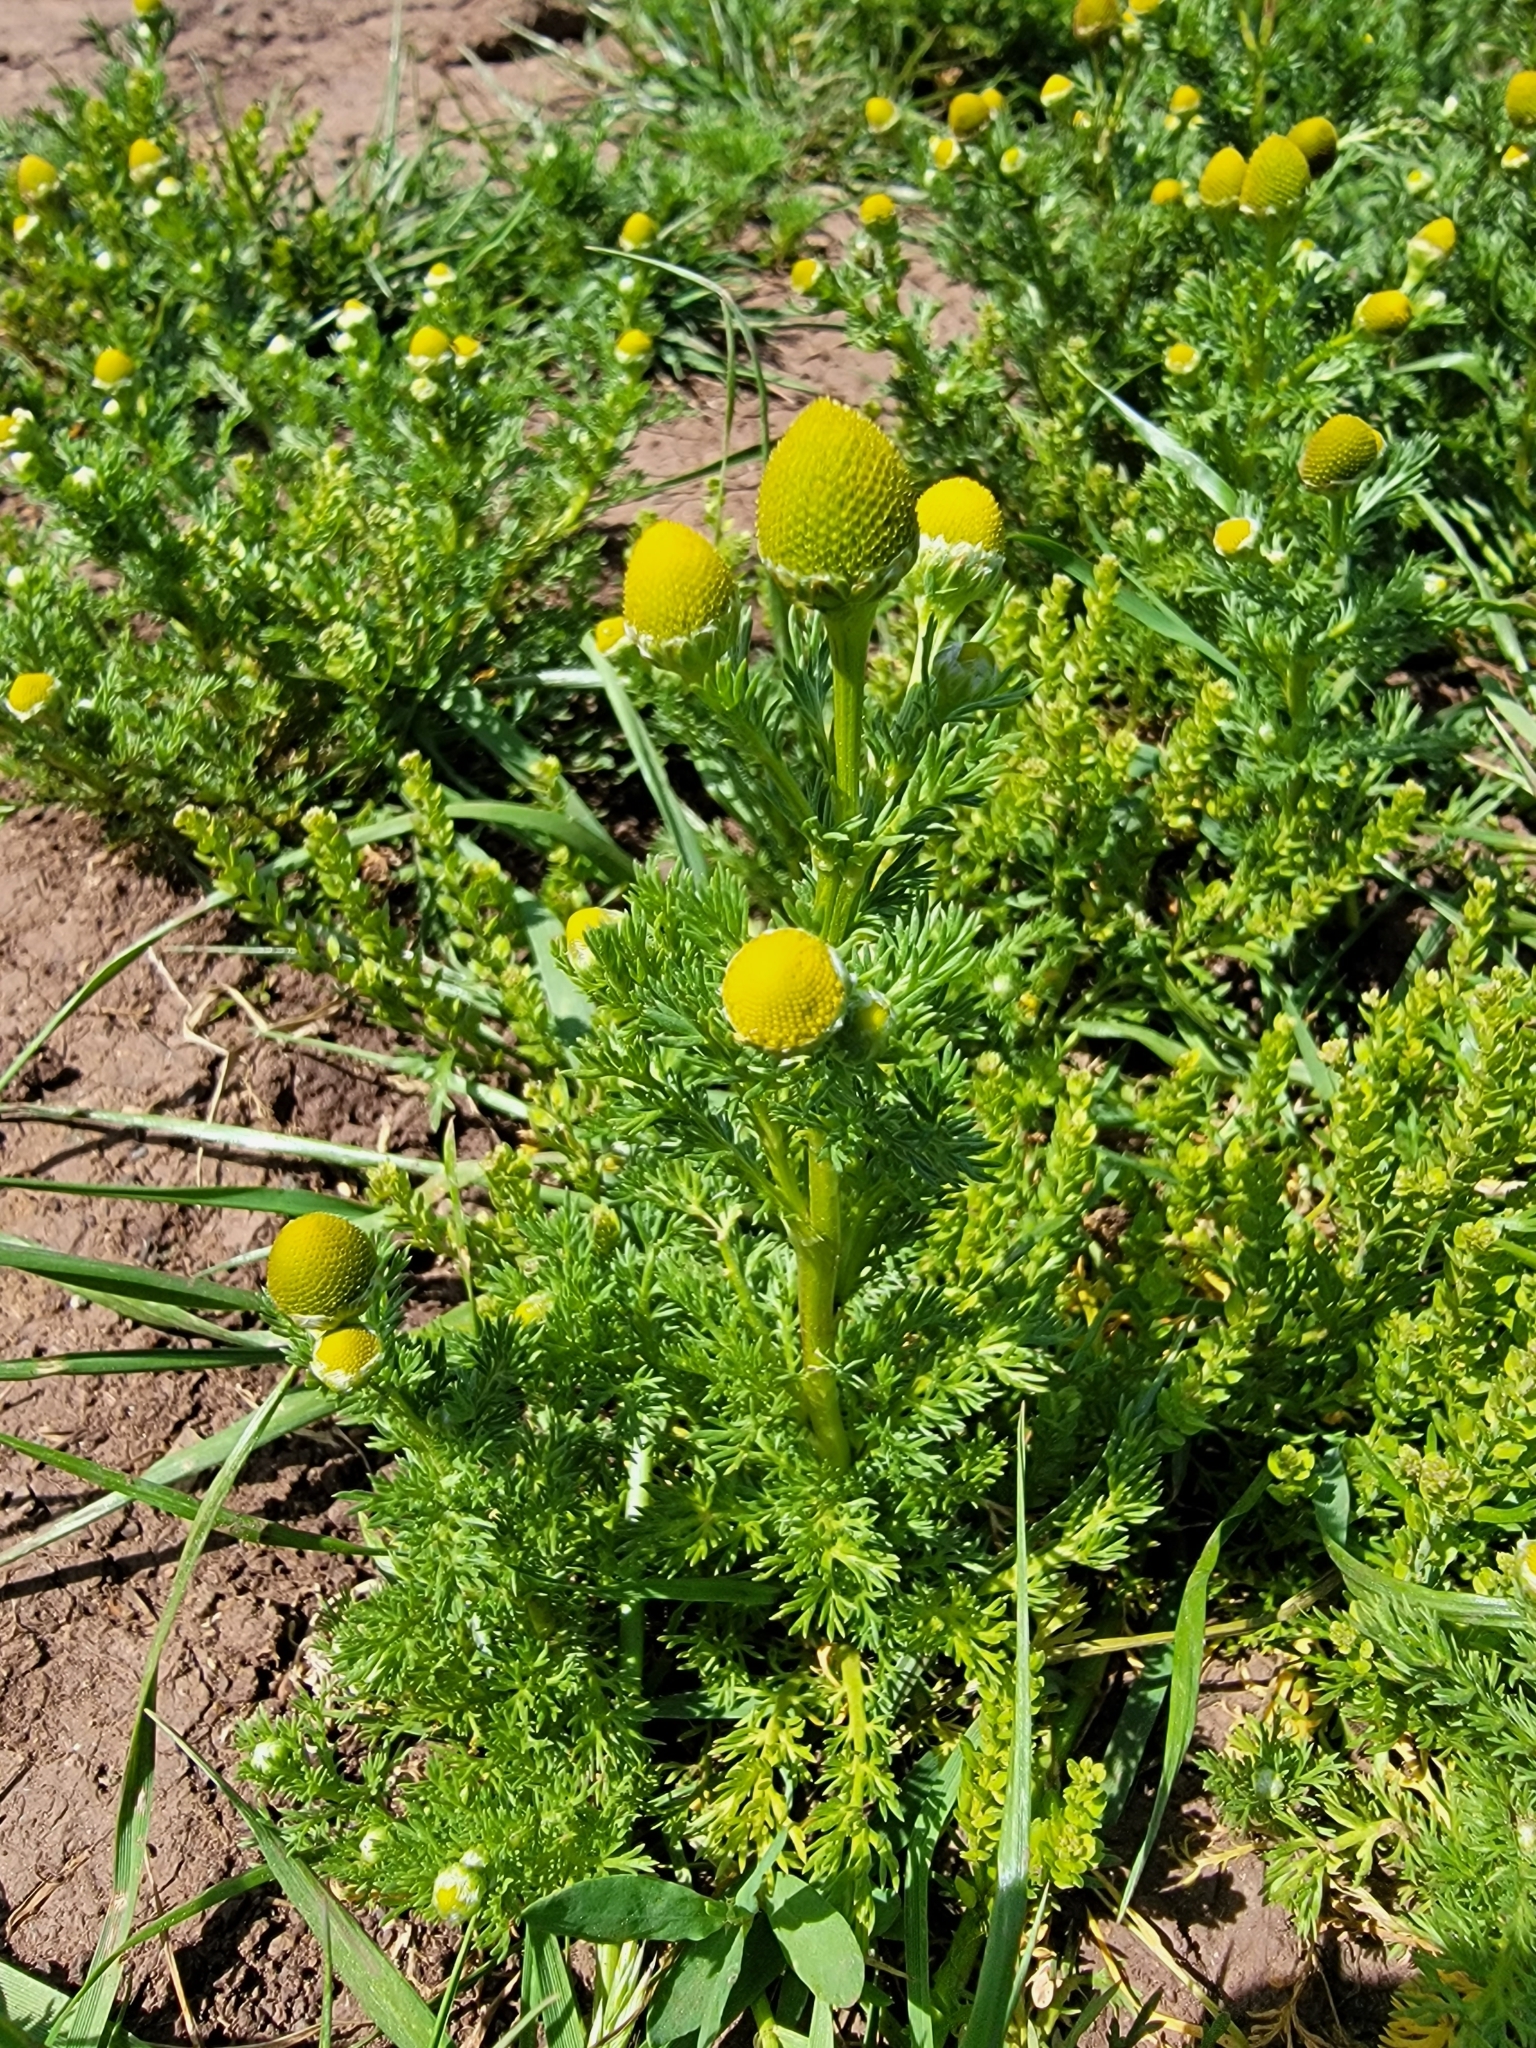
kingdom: Plantae
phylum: Tracheophyta
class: Magnoliopsida
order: Asterales
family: Asteraceae
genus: Matricaria
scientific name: Matricaria discoidea
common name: Disc mayweed
